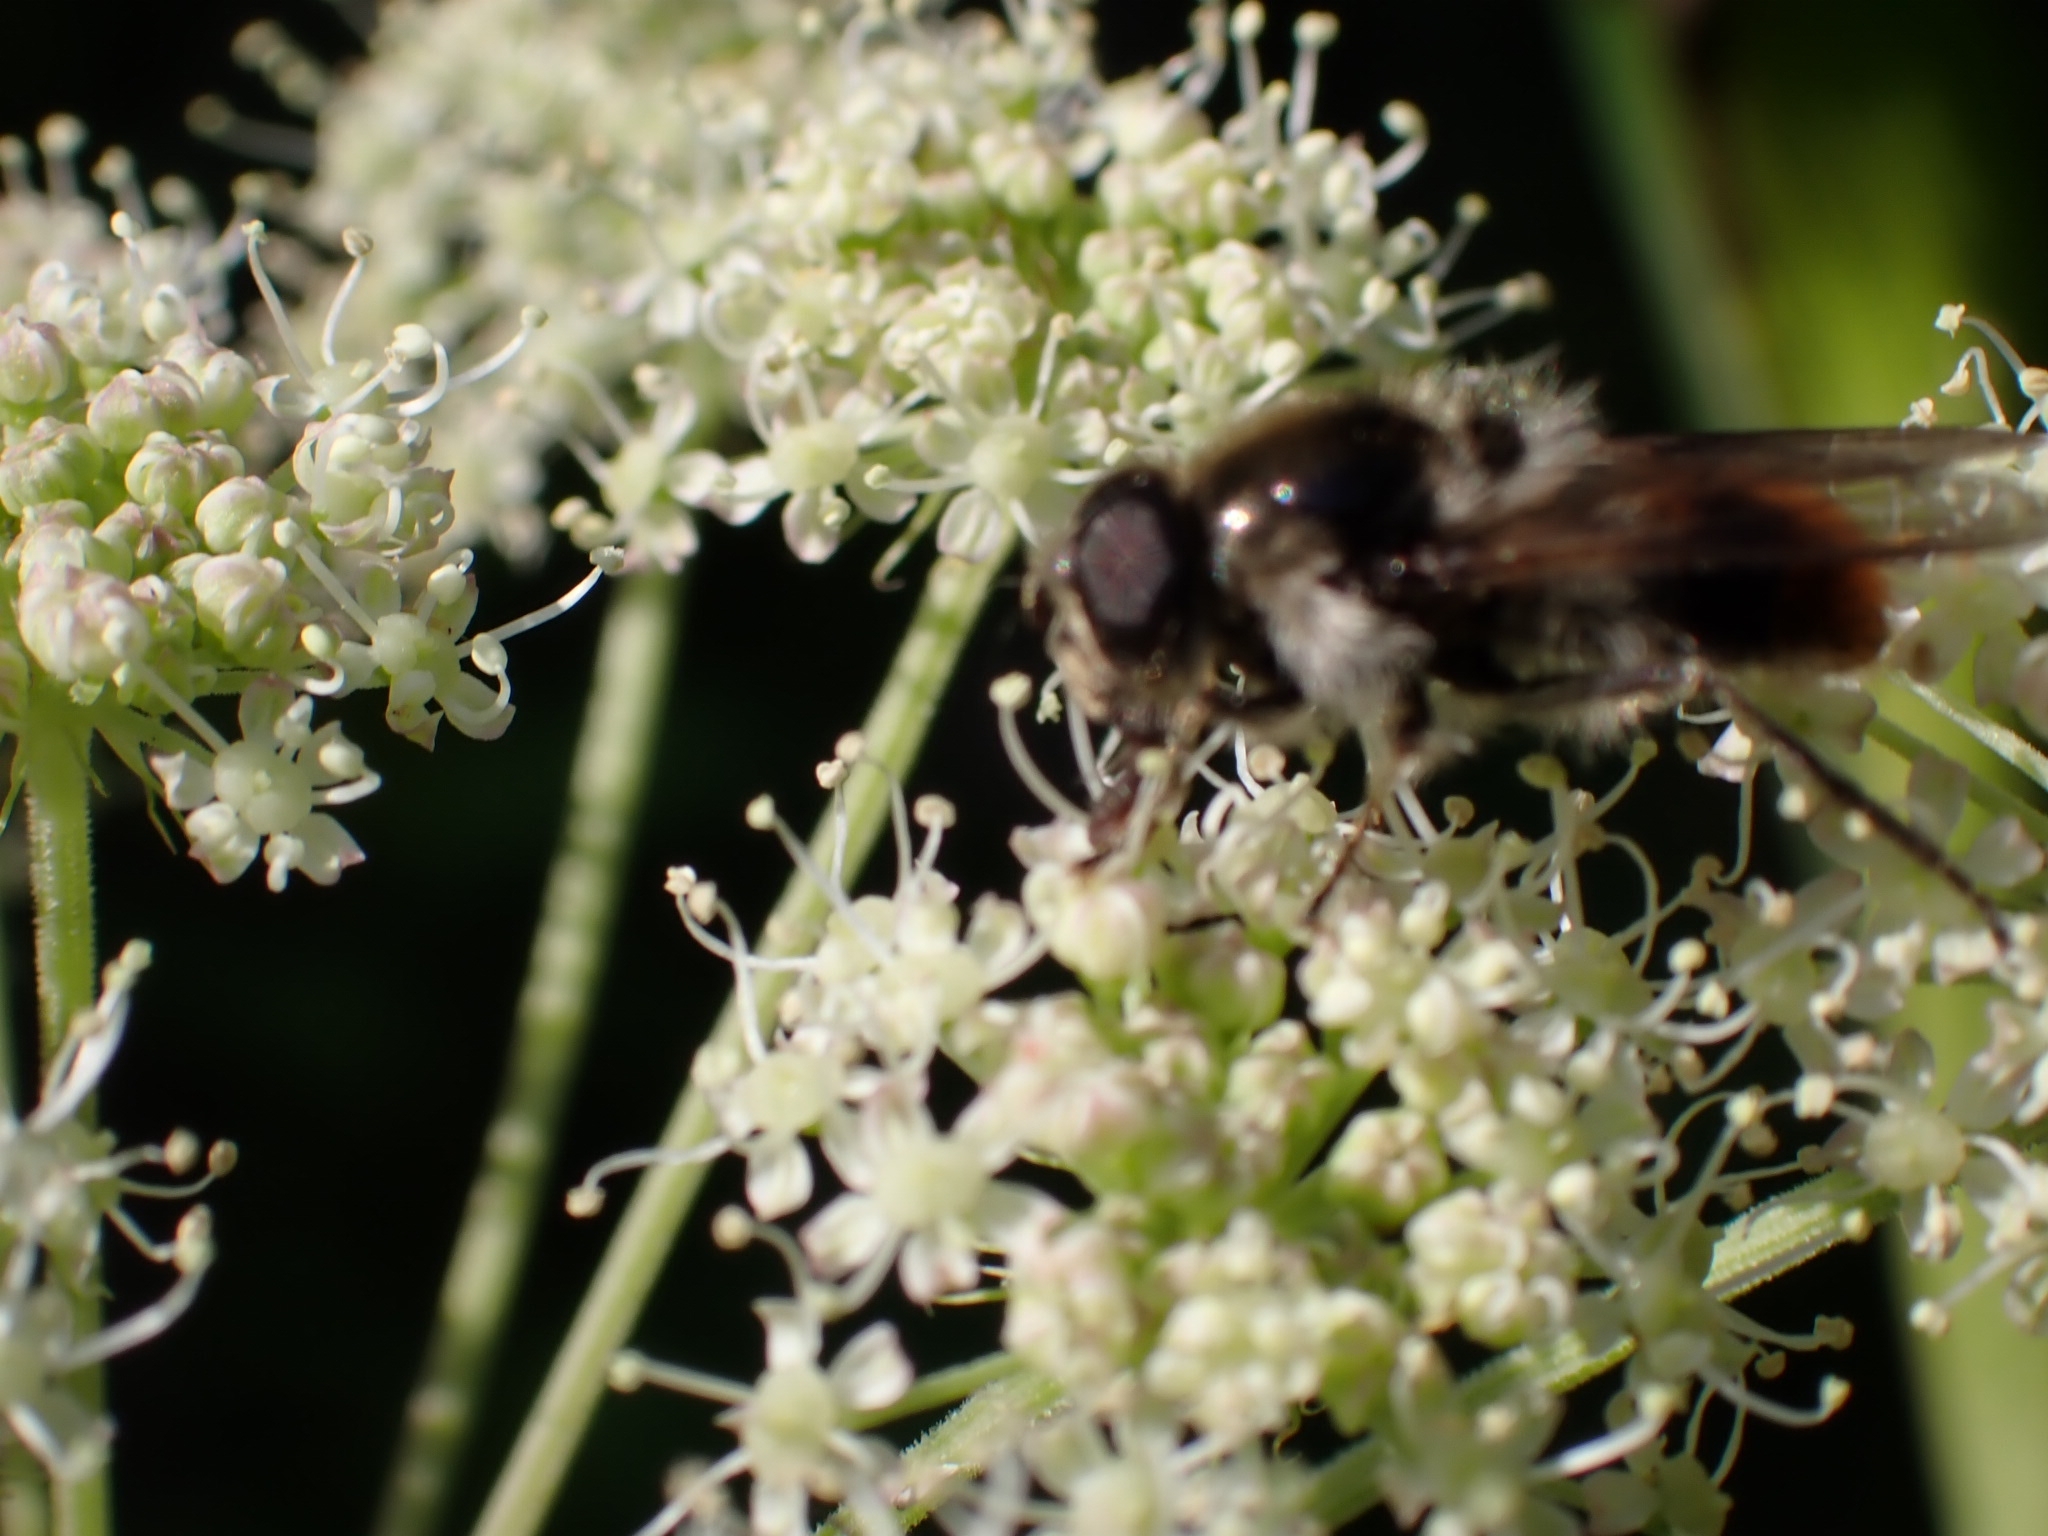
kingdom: Animalia
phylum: Arthropoda
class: Insecta
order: Diptera
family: Syrphidae
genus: Cheilosia
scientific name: Cheilosia illustrata
